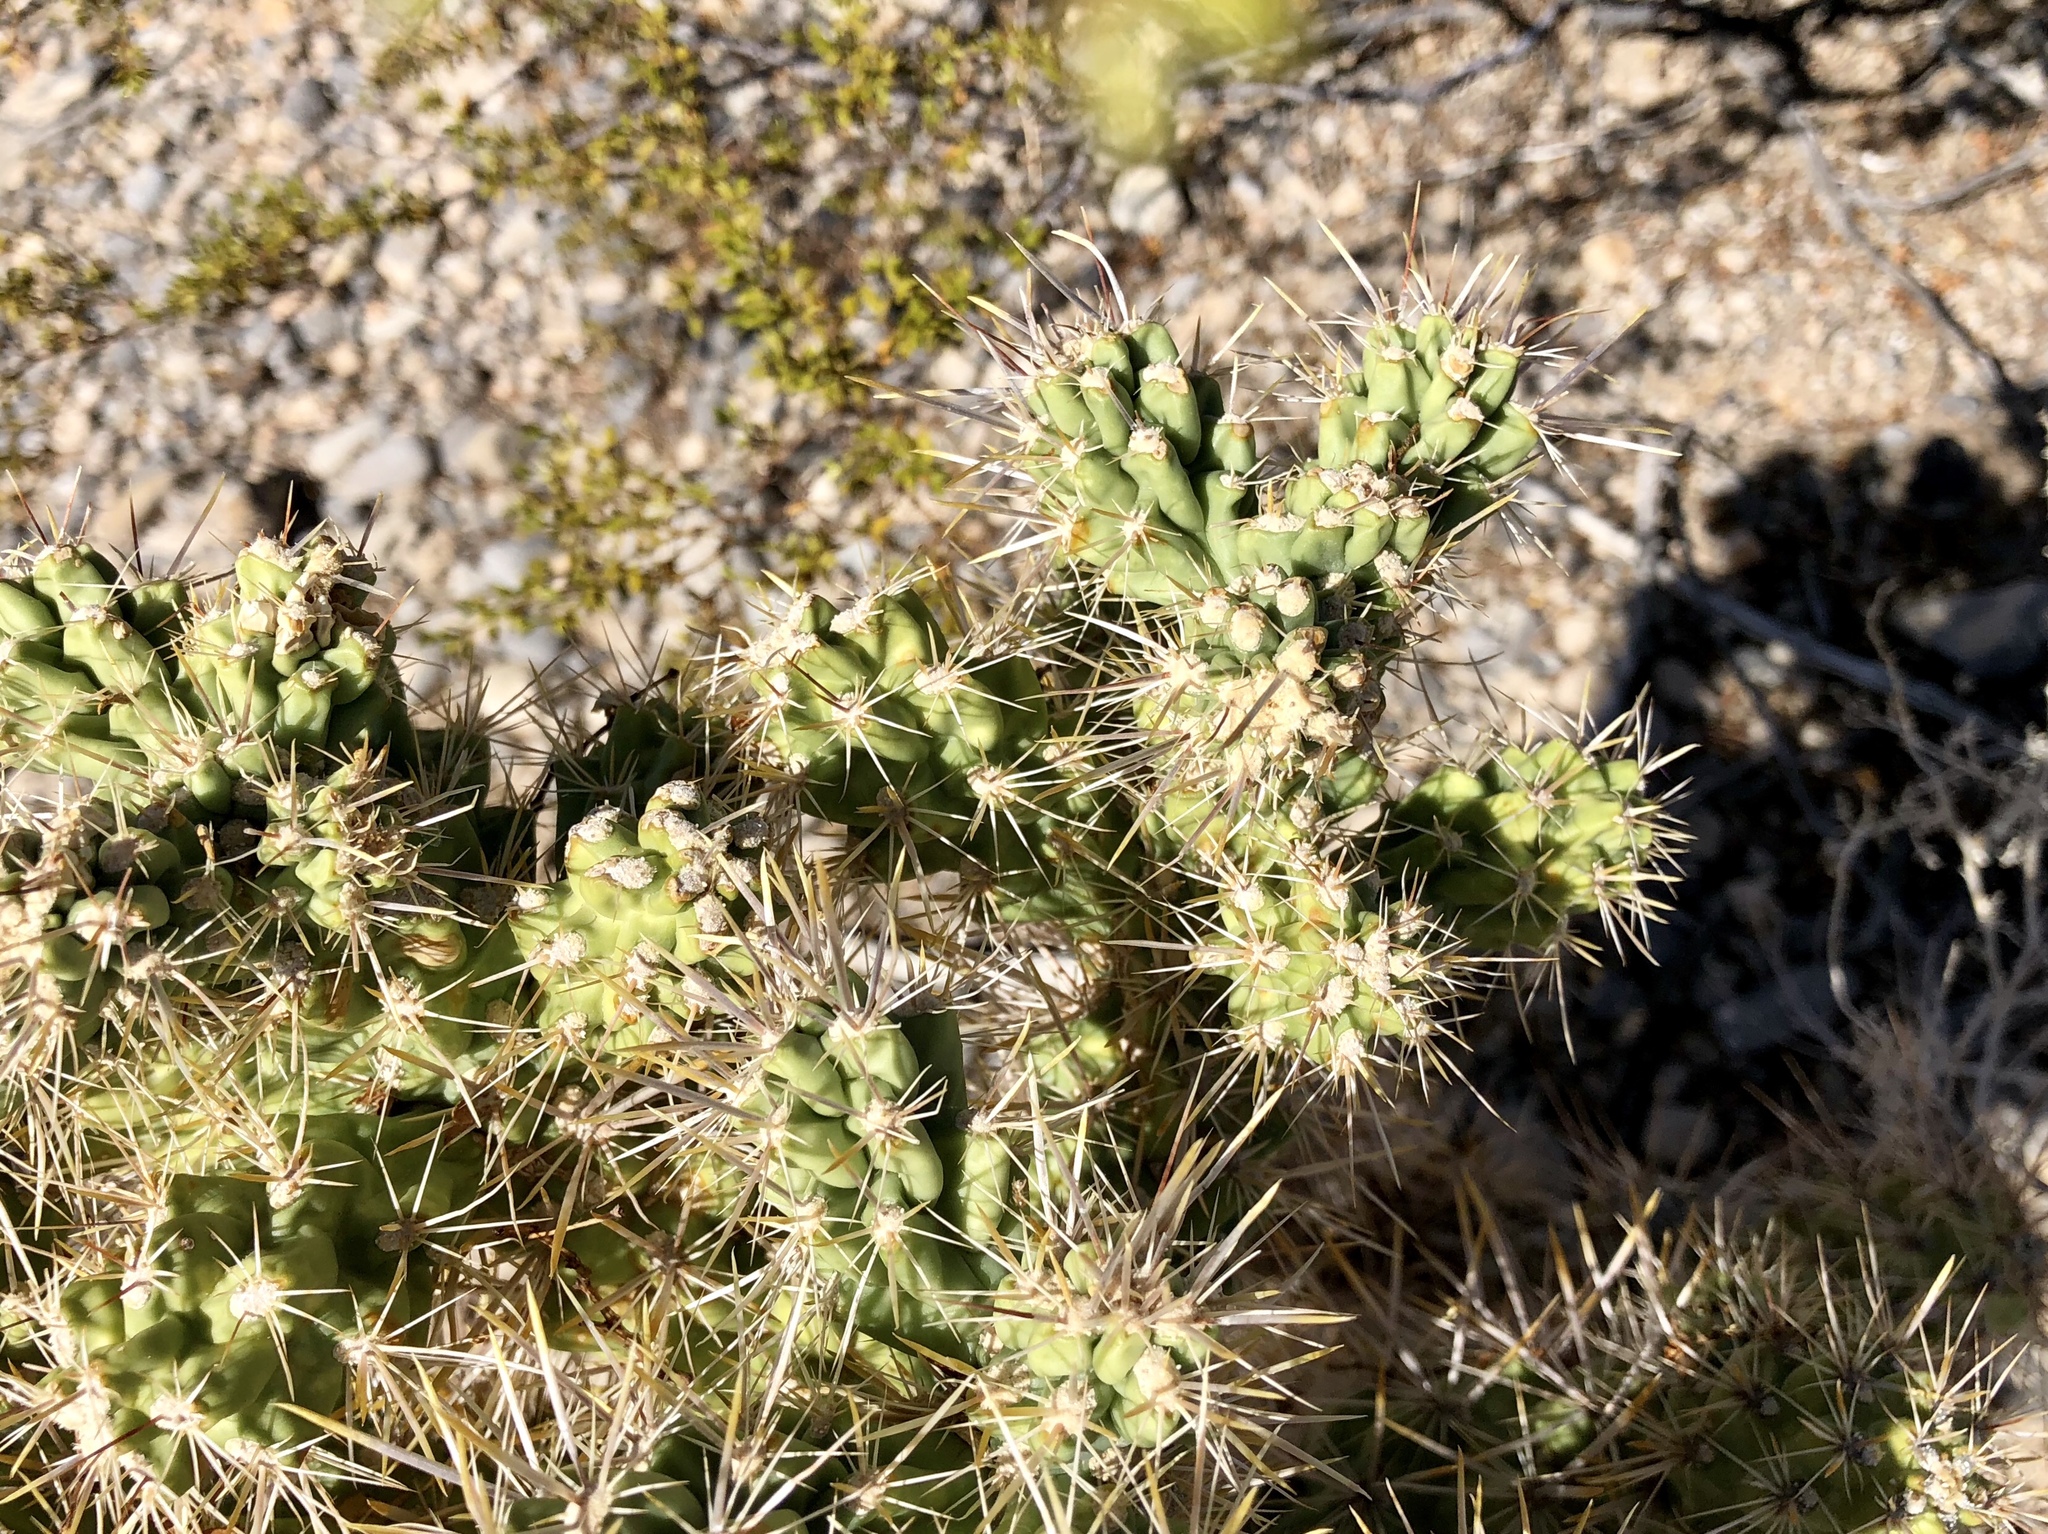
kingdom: Plantae
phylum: Tracheophyta
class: Magnoliopsida
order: Caryophyllales
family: Cactaceae
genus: Cylindropuntia
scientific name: Cylindropuntia echinocarpa
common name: Ground cholla
